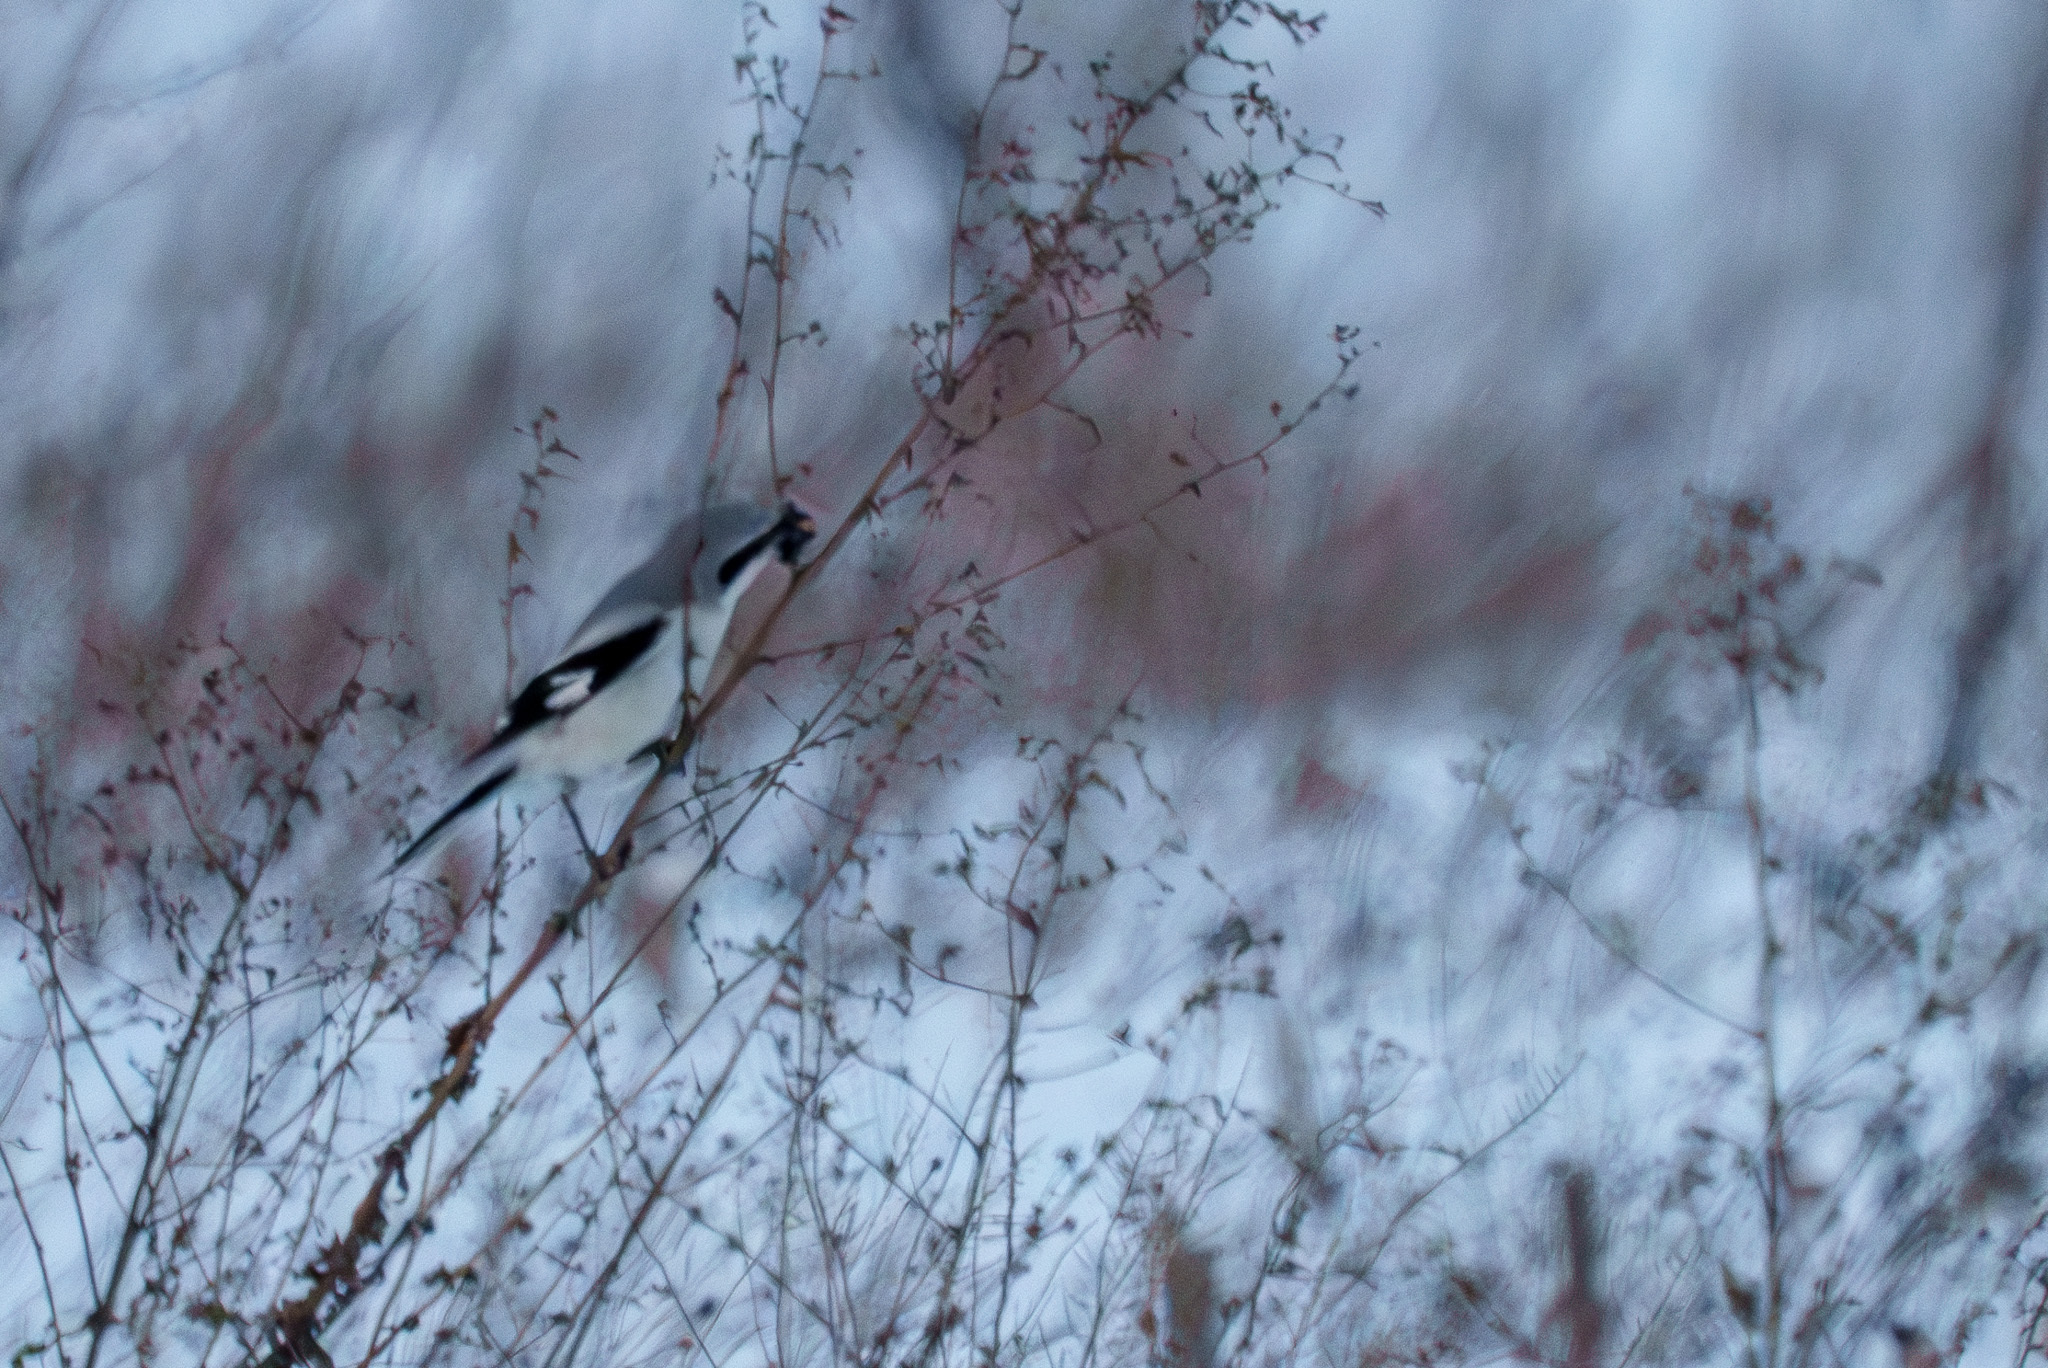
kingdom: Animalia
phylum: Chordata
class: Aves
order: Passeriformes
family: Laniidae
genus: Lanius
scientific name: Lanius excubitor
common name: Great grey shrike
